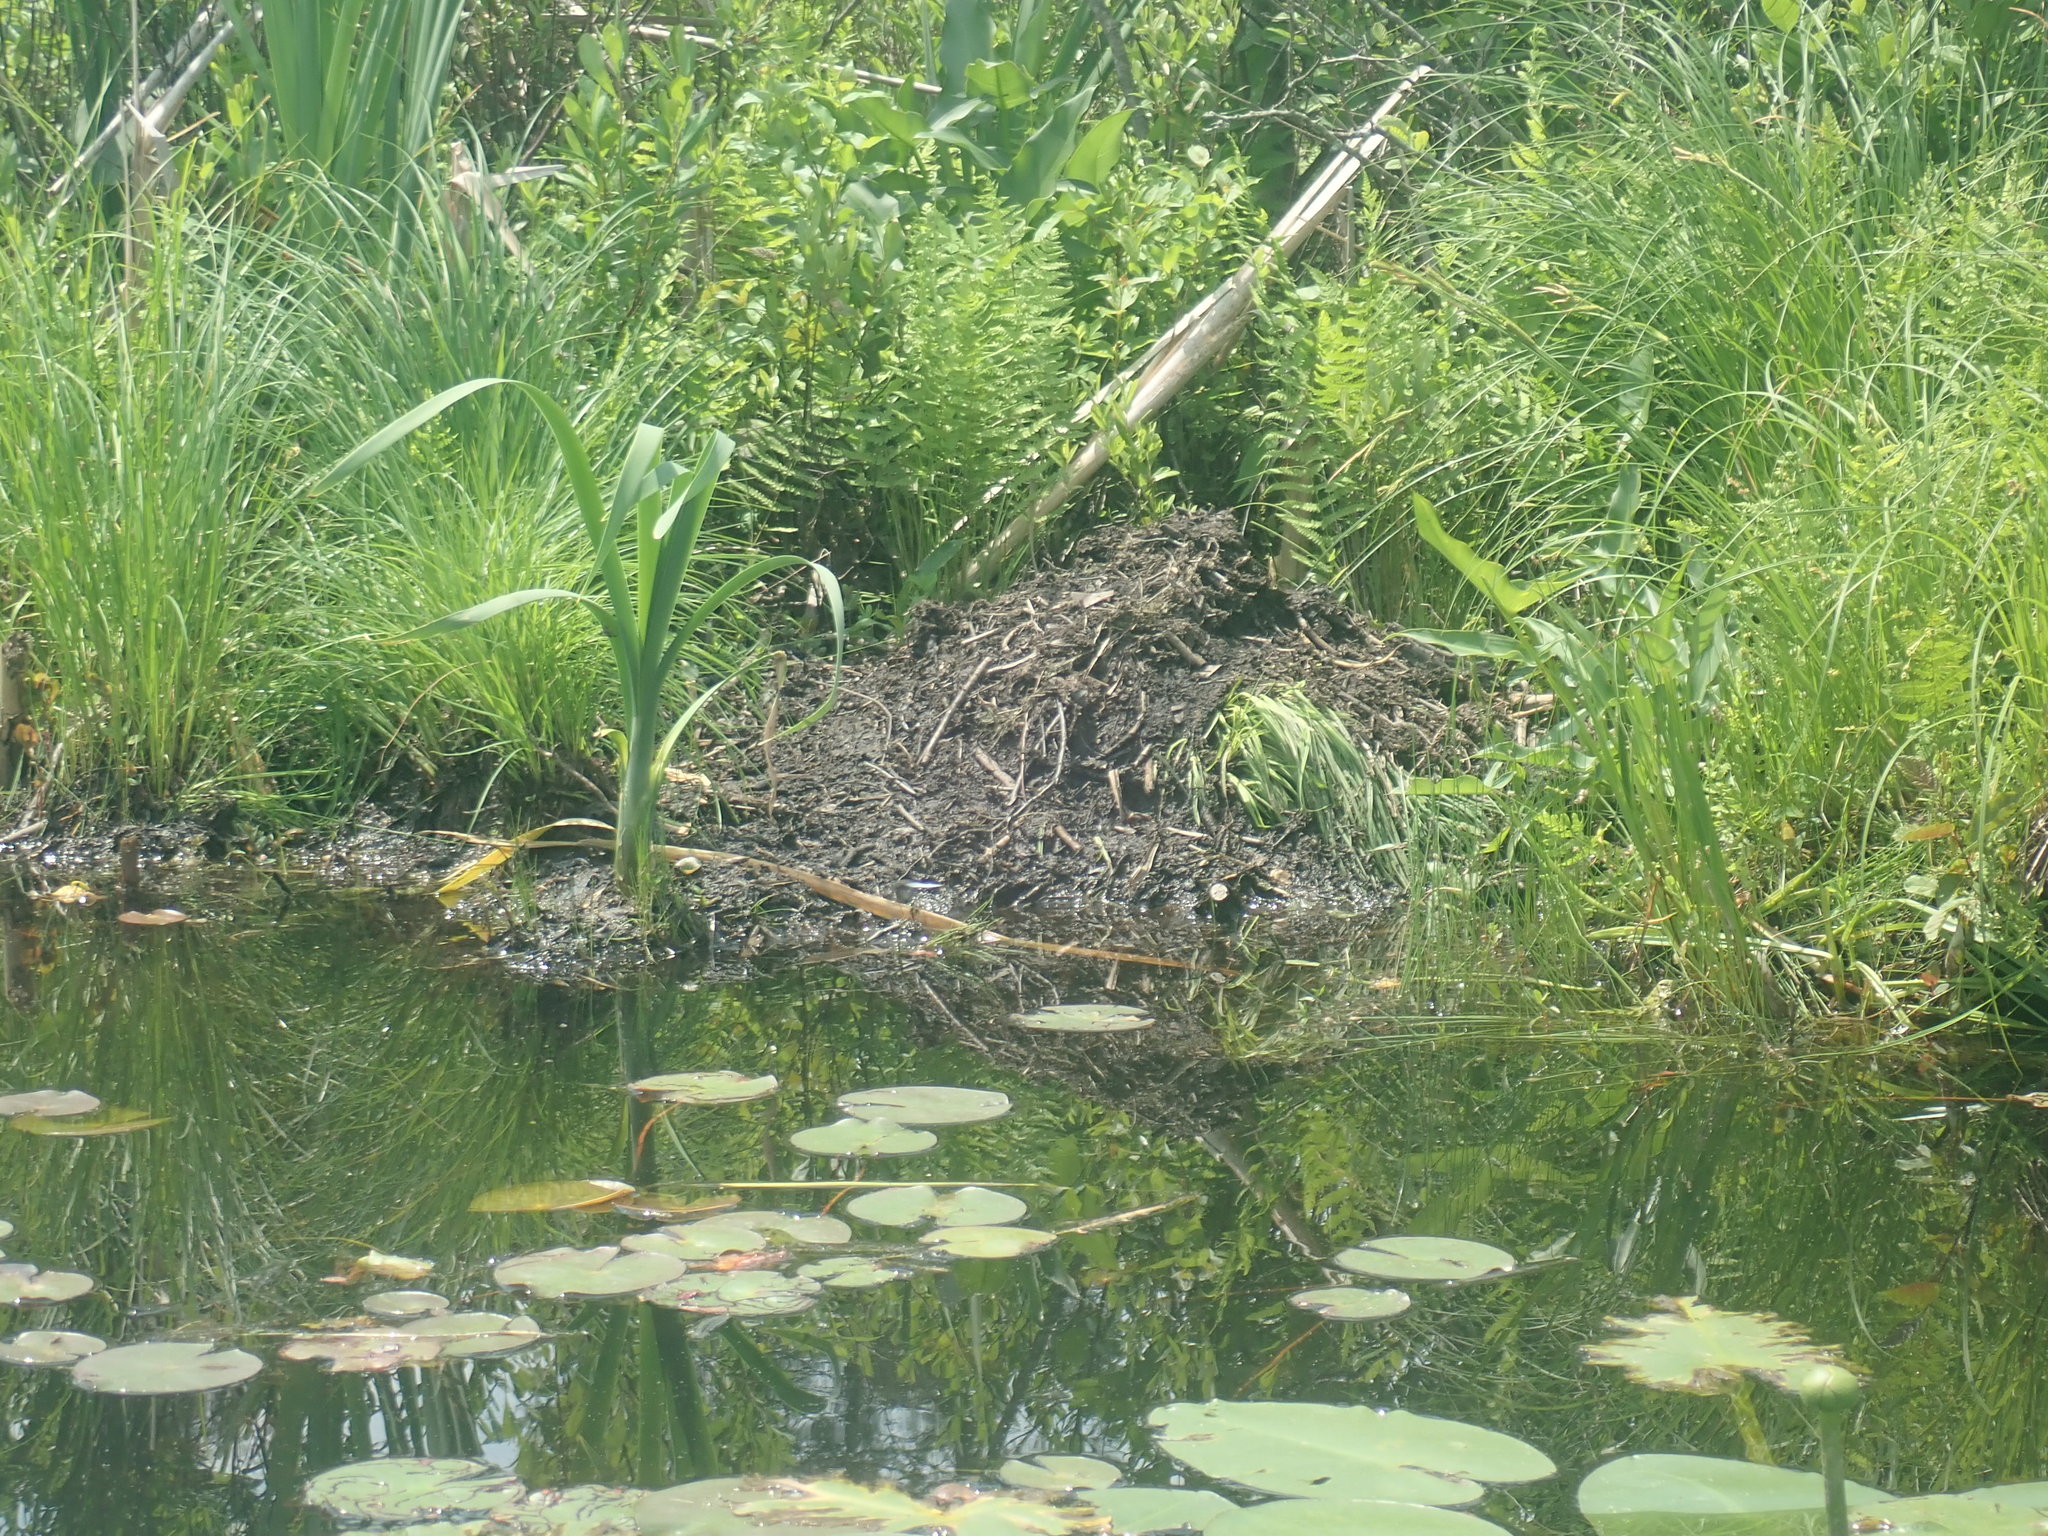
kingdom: Animalia
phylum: Chordata
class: Mammalia
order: Rodentia
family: Castoridae
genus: Castor
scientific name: Castor canadensis
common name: American beaver
